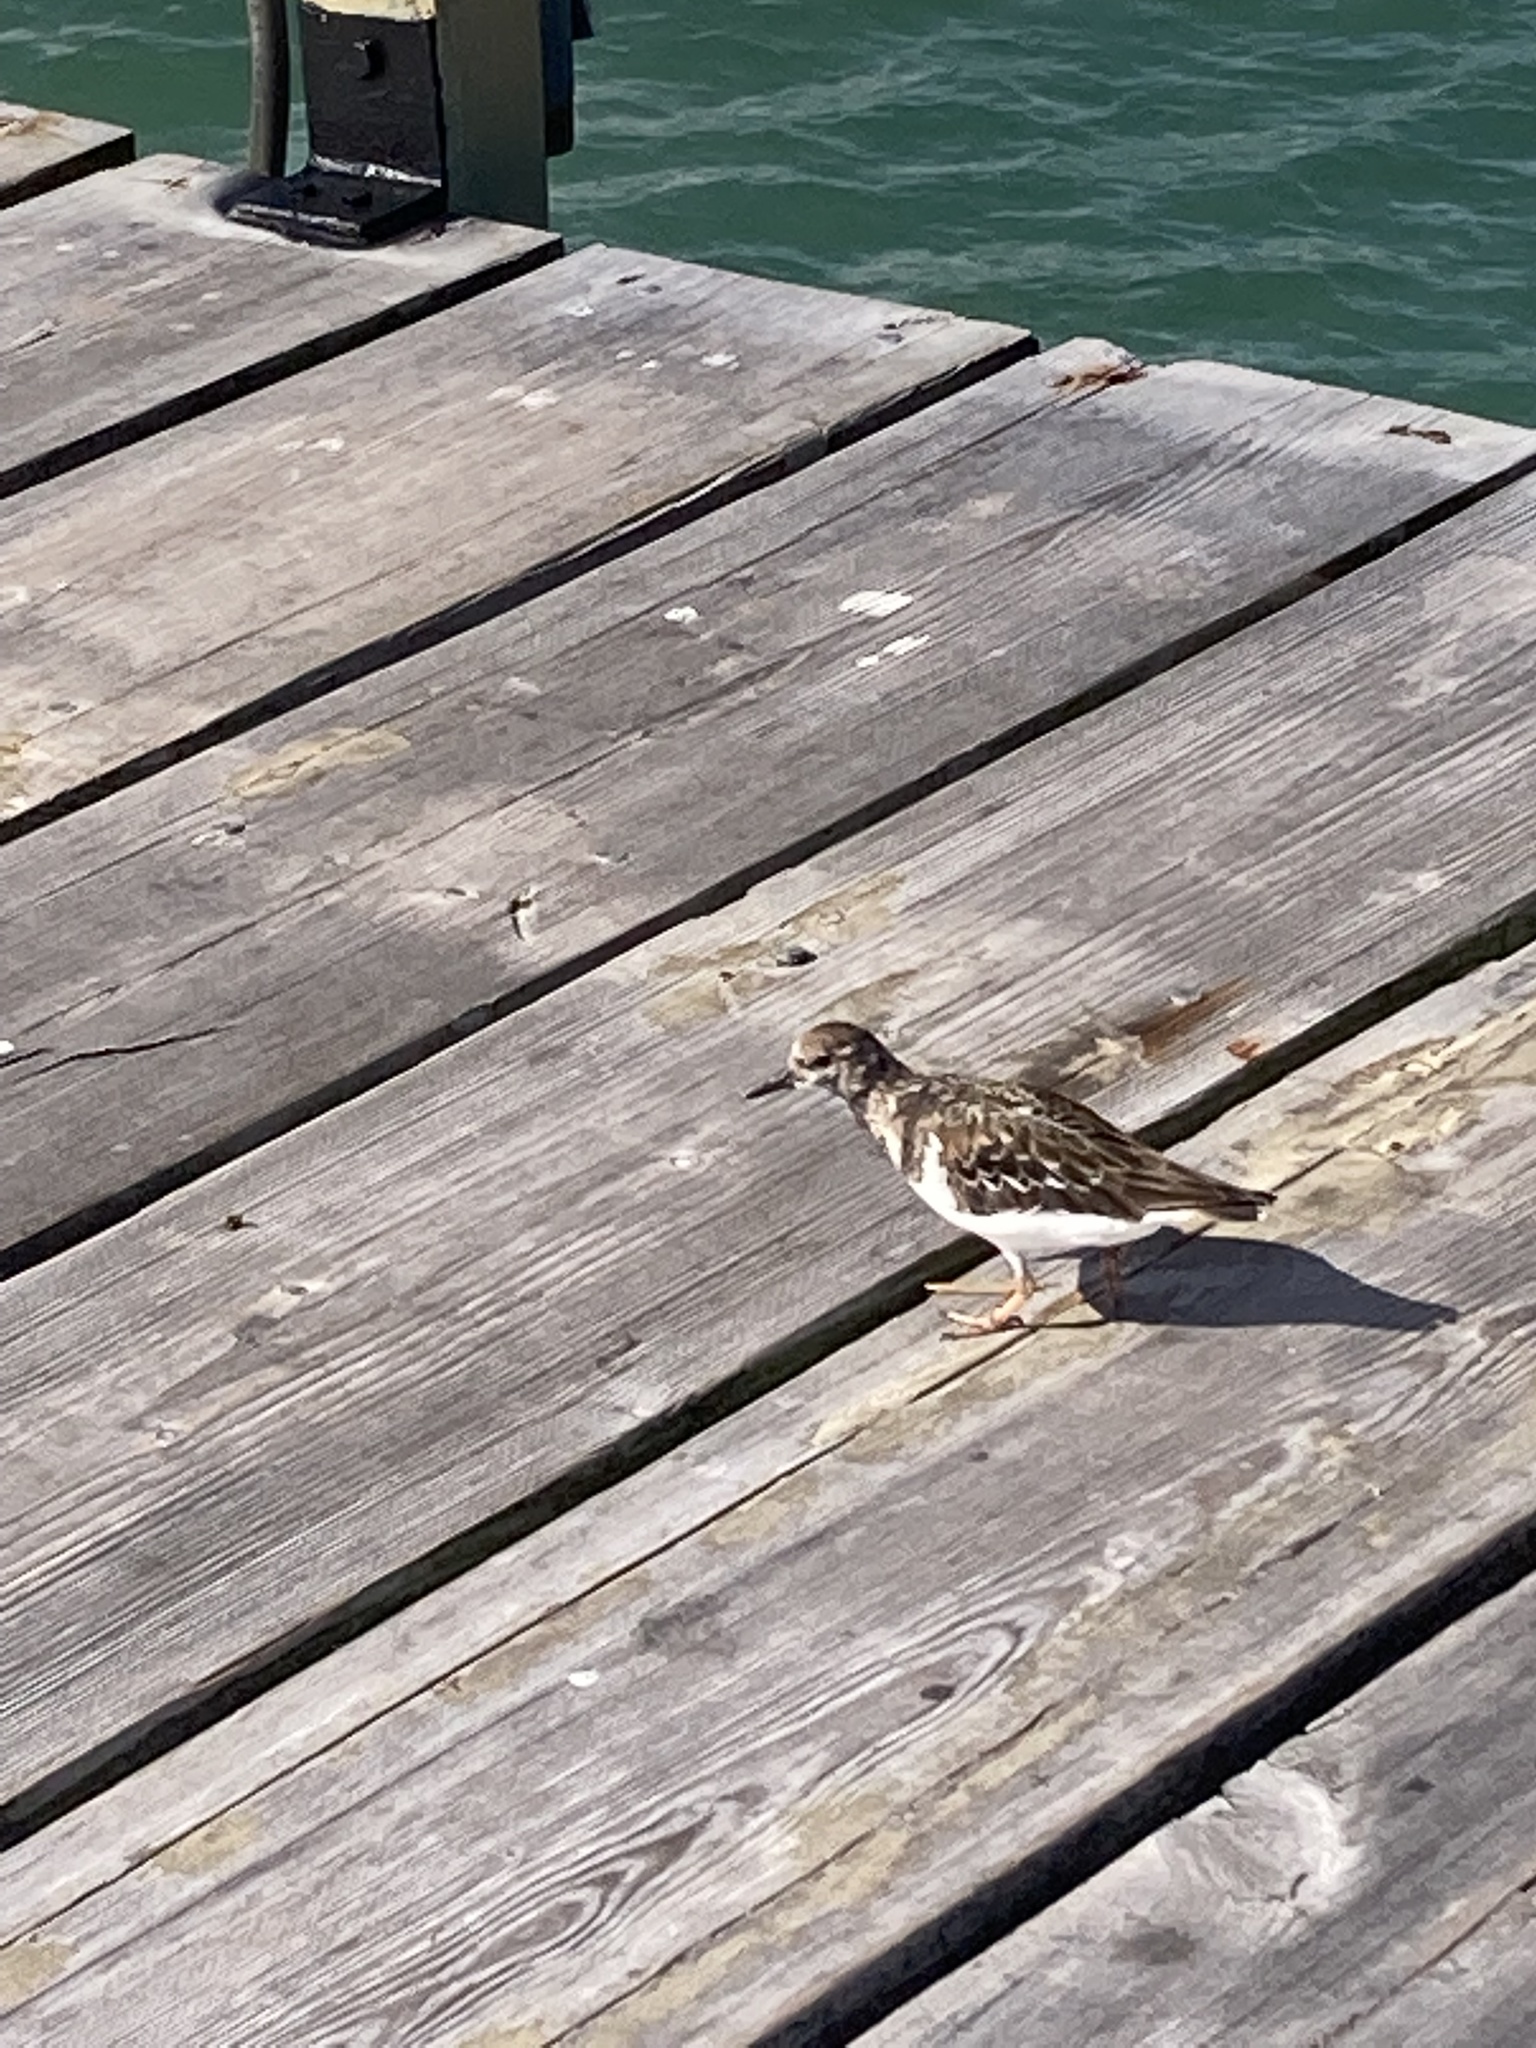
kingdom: Animalia
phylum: Chordata
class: Aves
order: Charadriiformes
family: Scolopacidae
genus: Arenaria
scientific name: Arenaria interpres
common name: Ruddy turnstone
